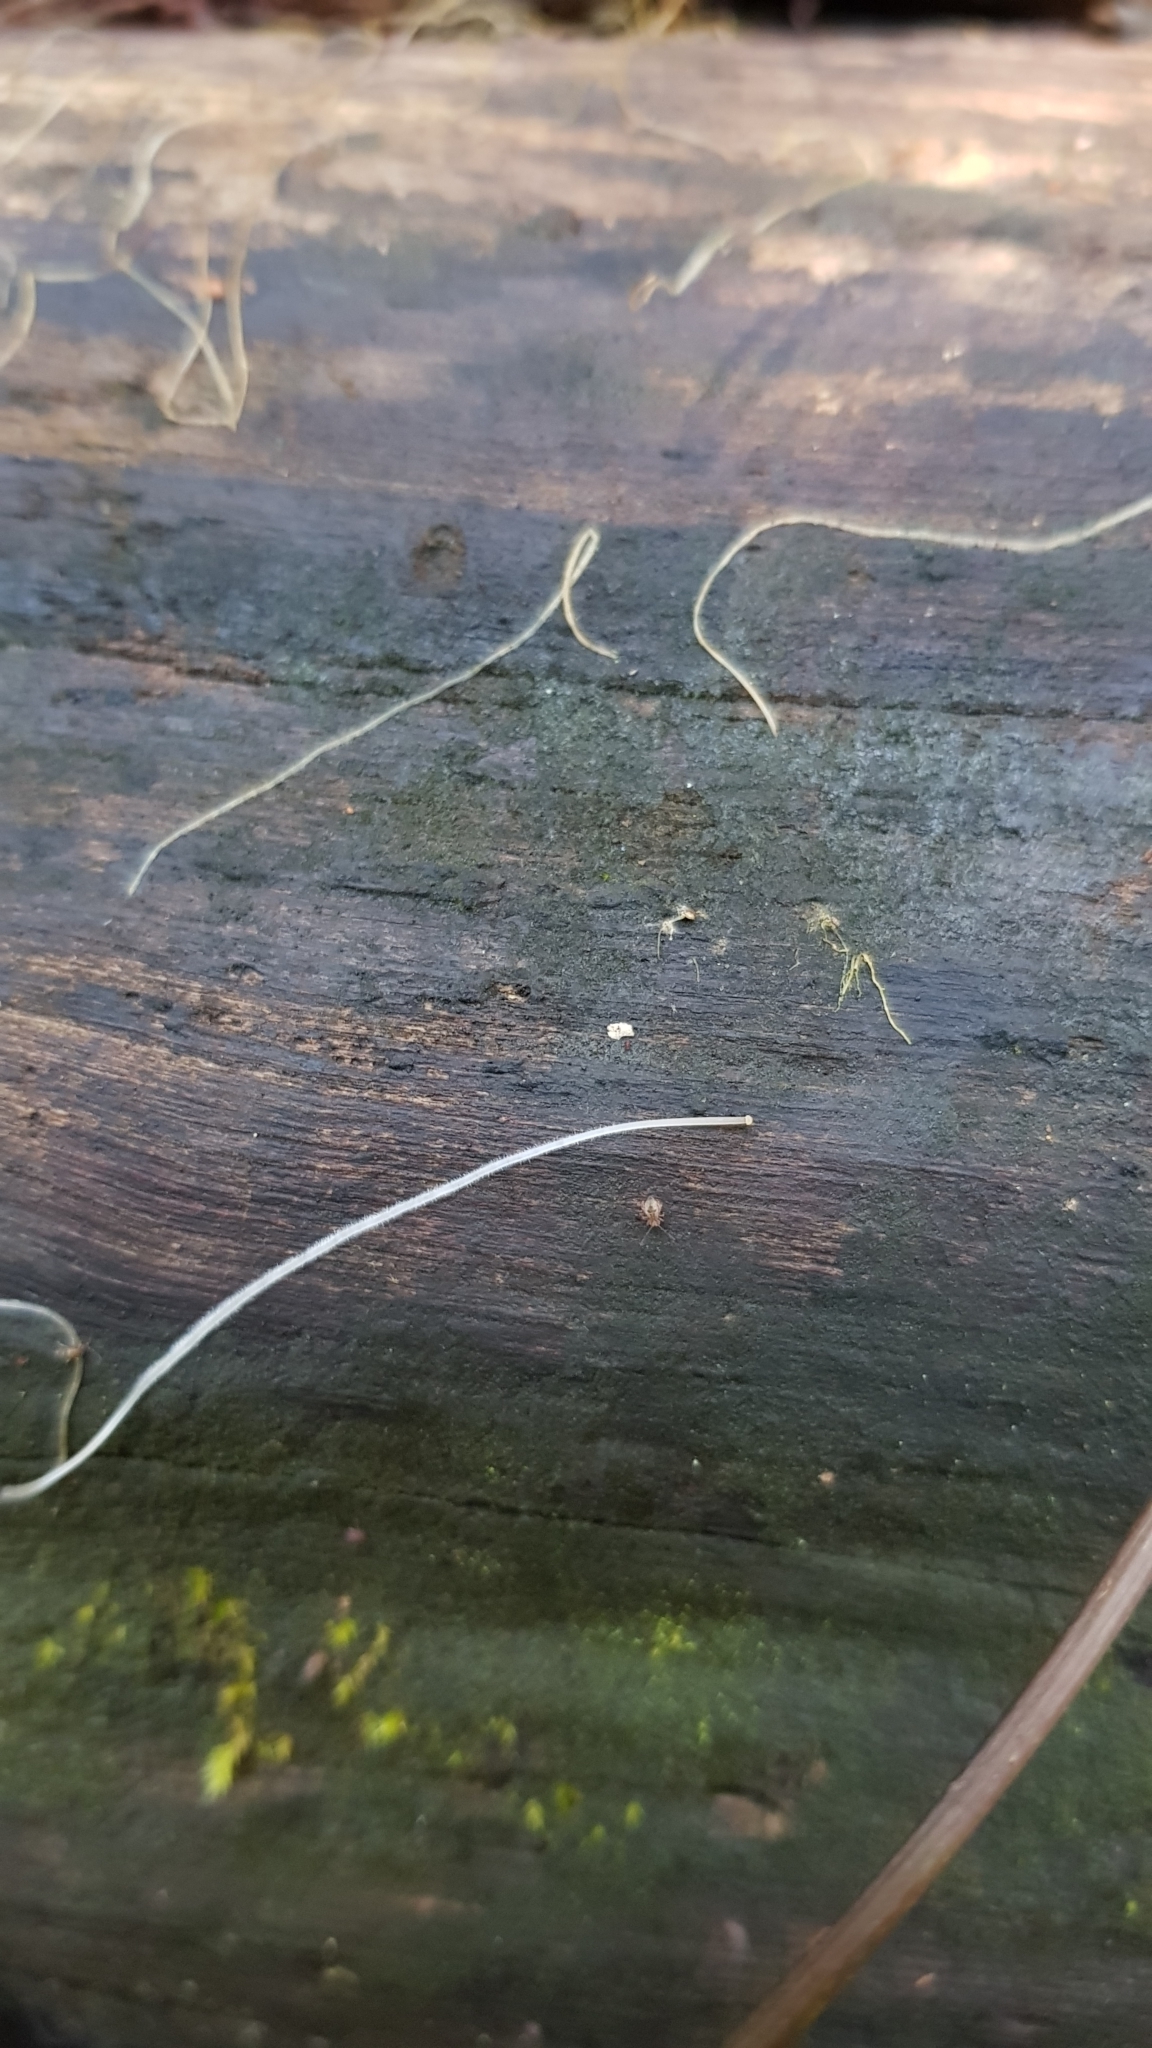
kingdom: Fungi
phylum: Basidiomycota
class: Agaricomycetes
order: Agaricales
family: Mycenaceae
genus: Mycena
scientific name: Mycena cystidiosa
